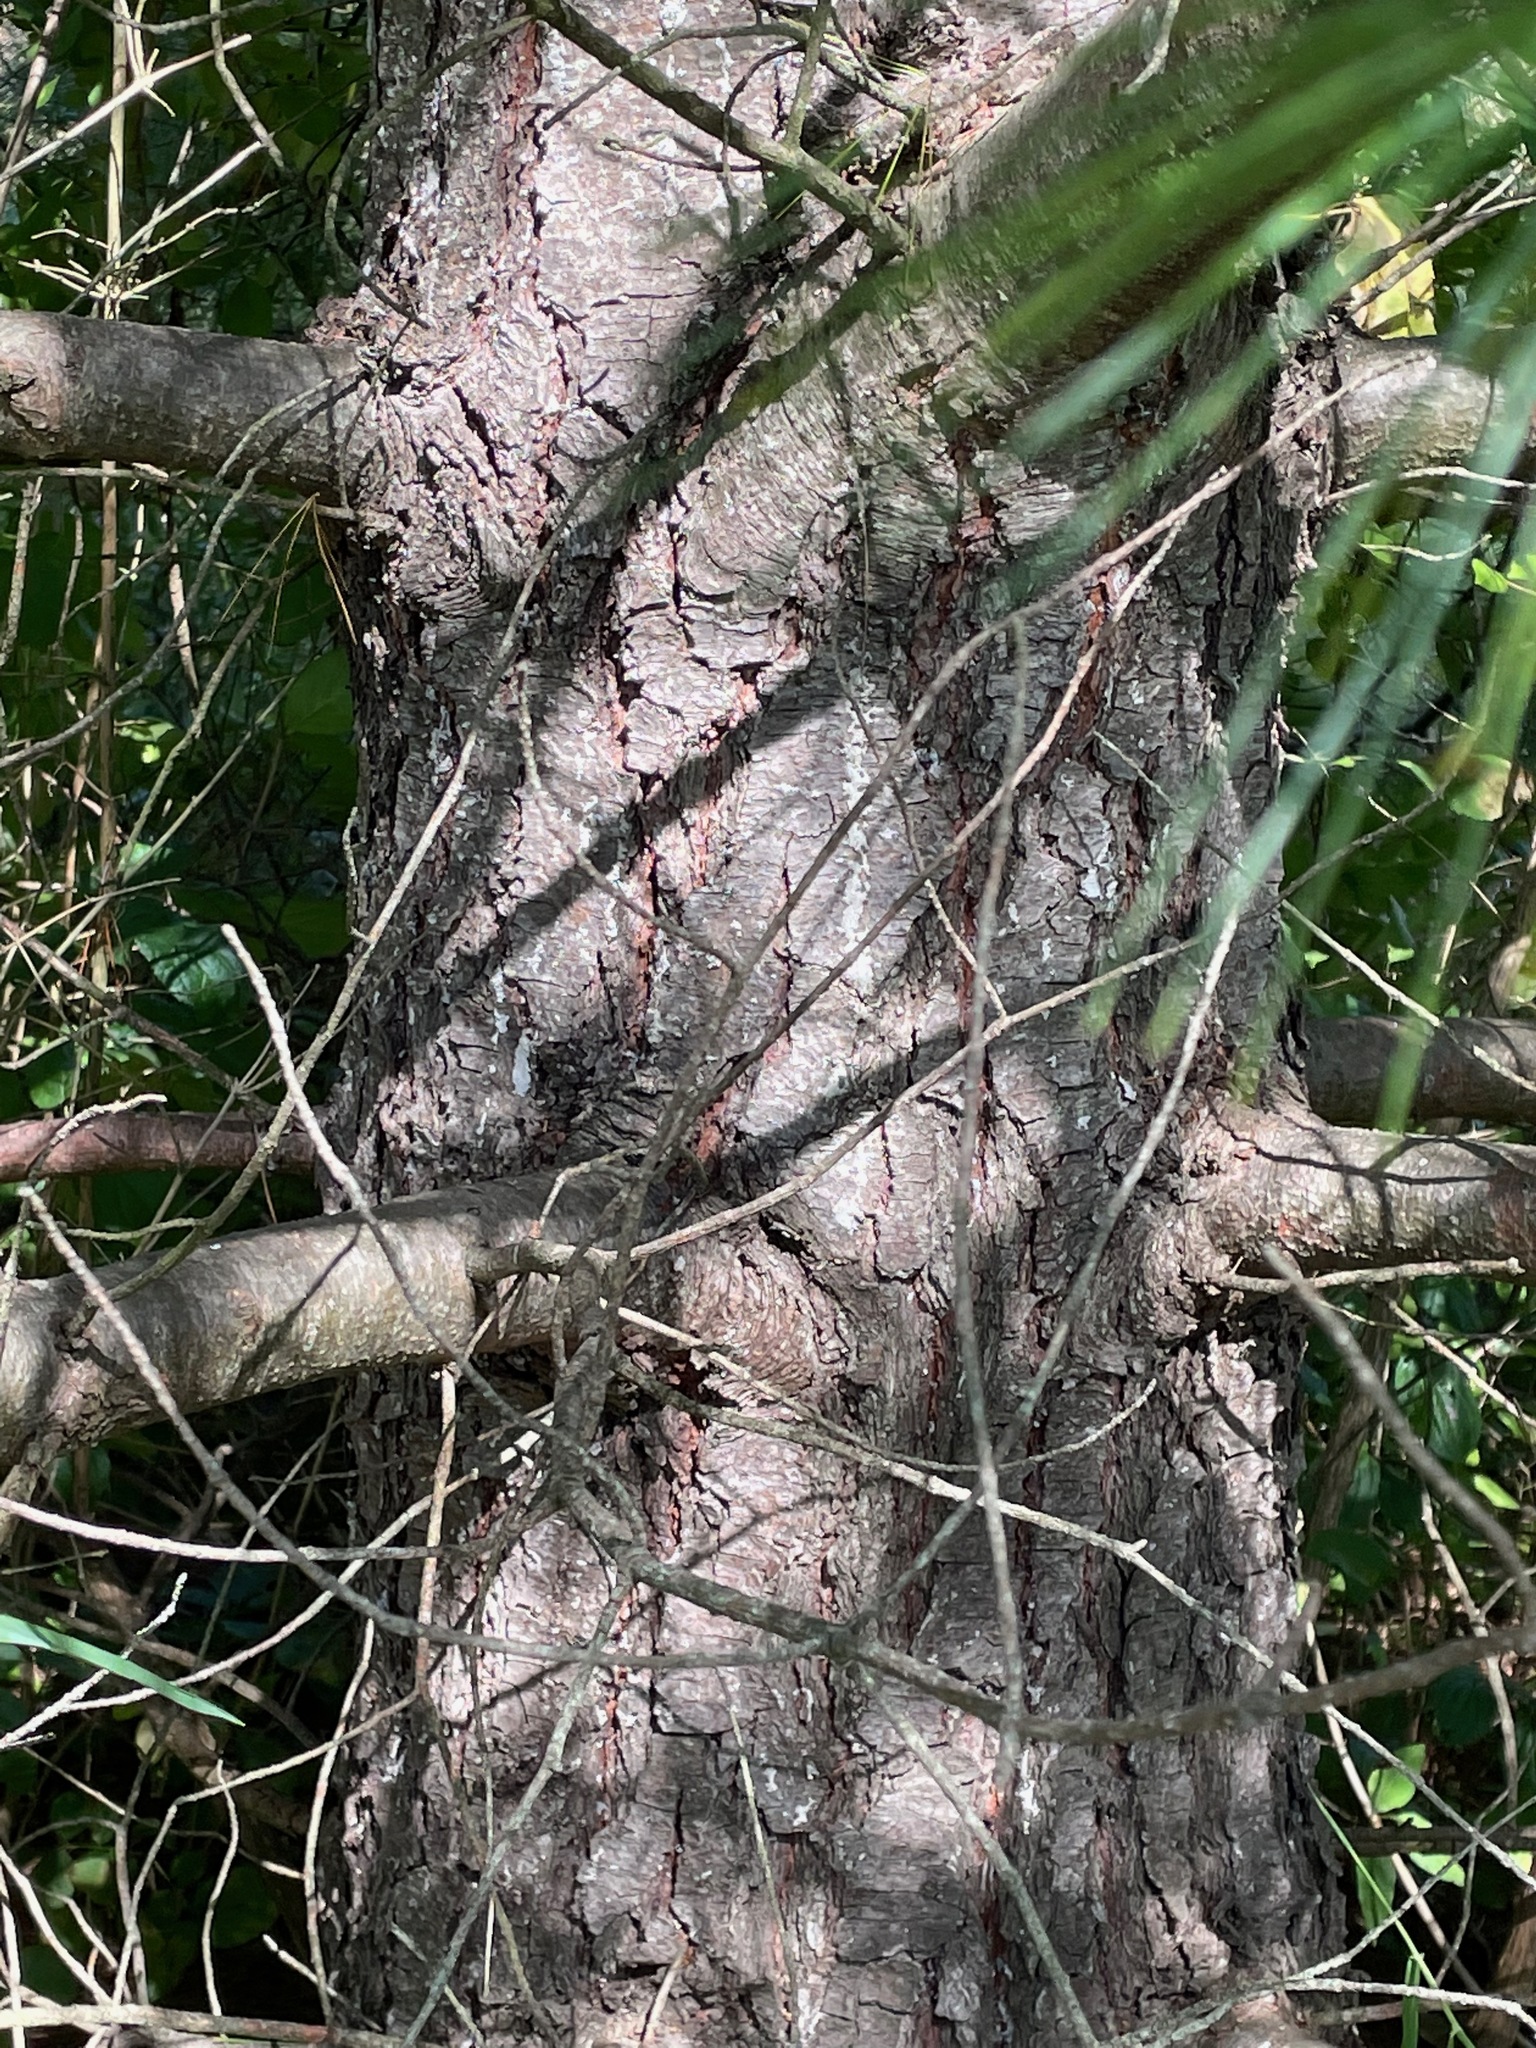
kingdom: Plantae
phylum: Tracheophyta
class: Pinopsida
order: Pinales
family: Pinaceae
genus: Pinus
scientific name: Pinus strobus
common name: Weymouth pine
